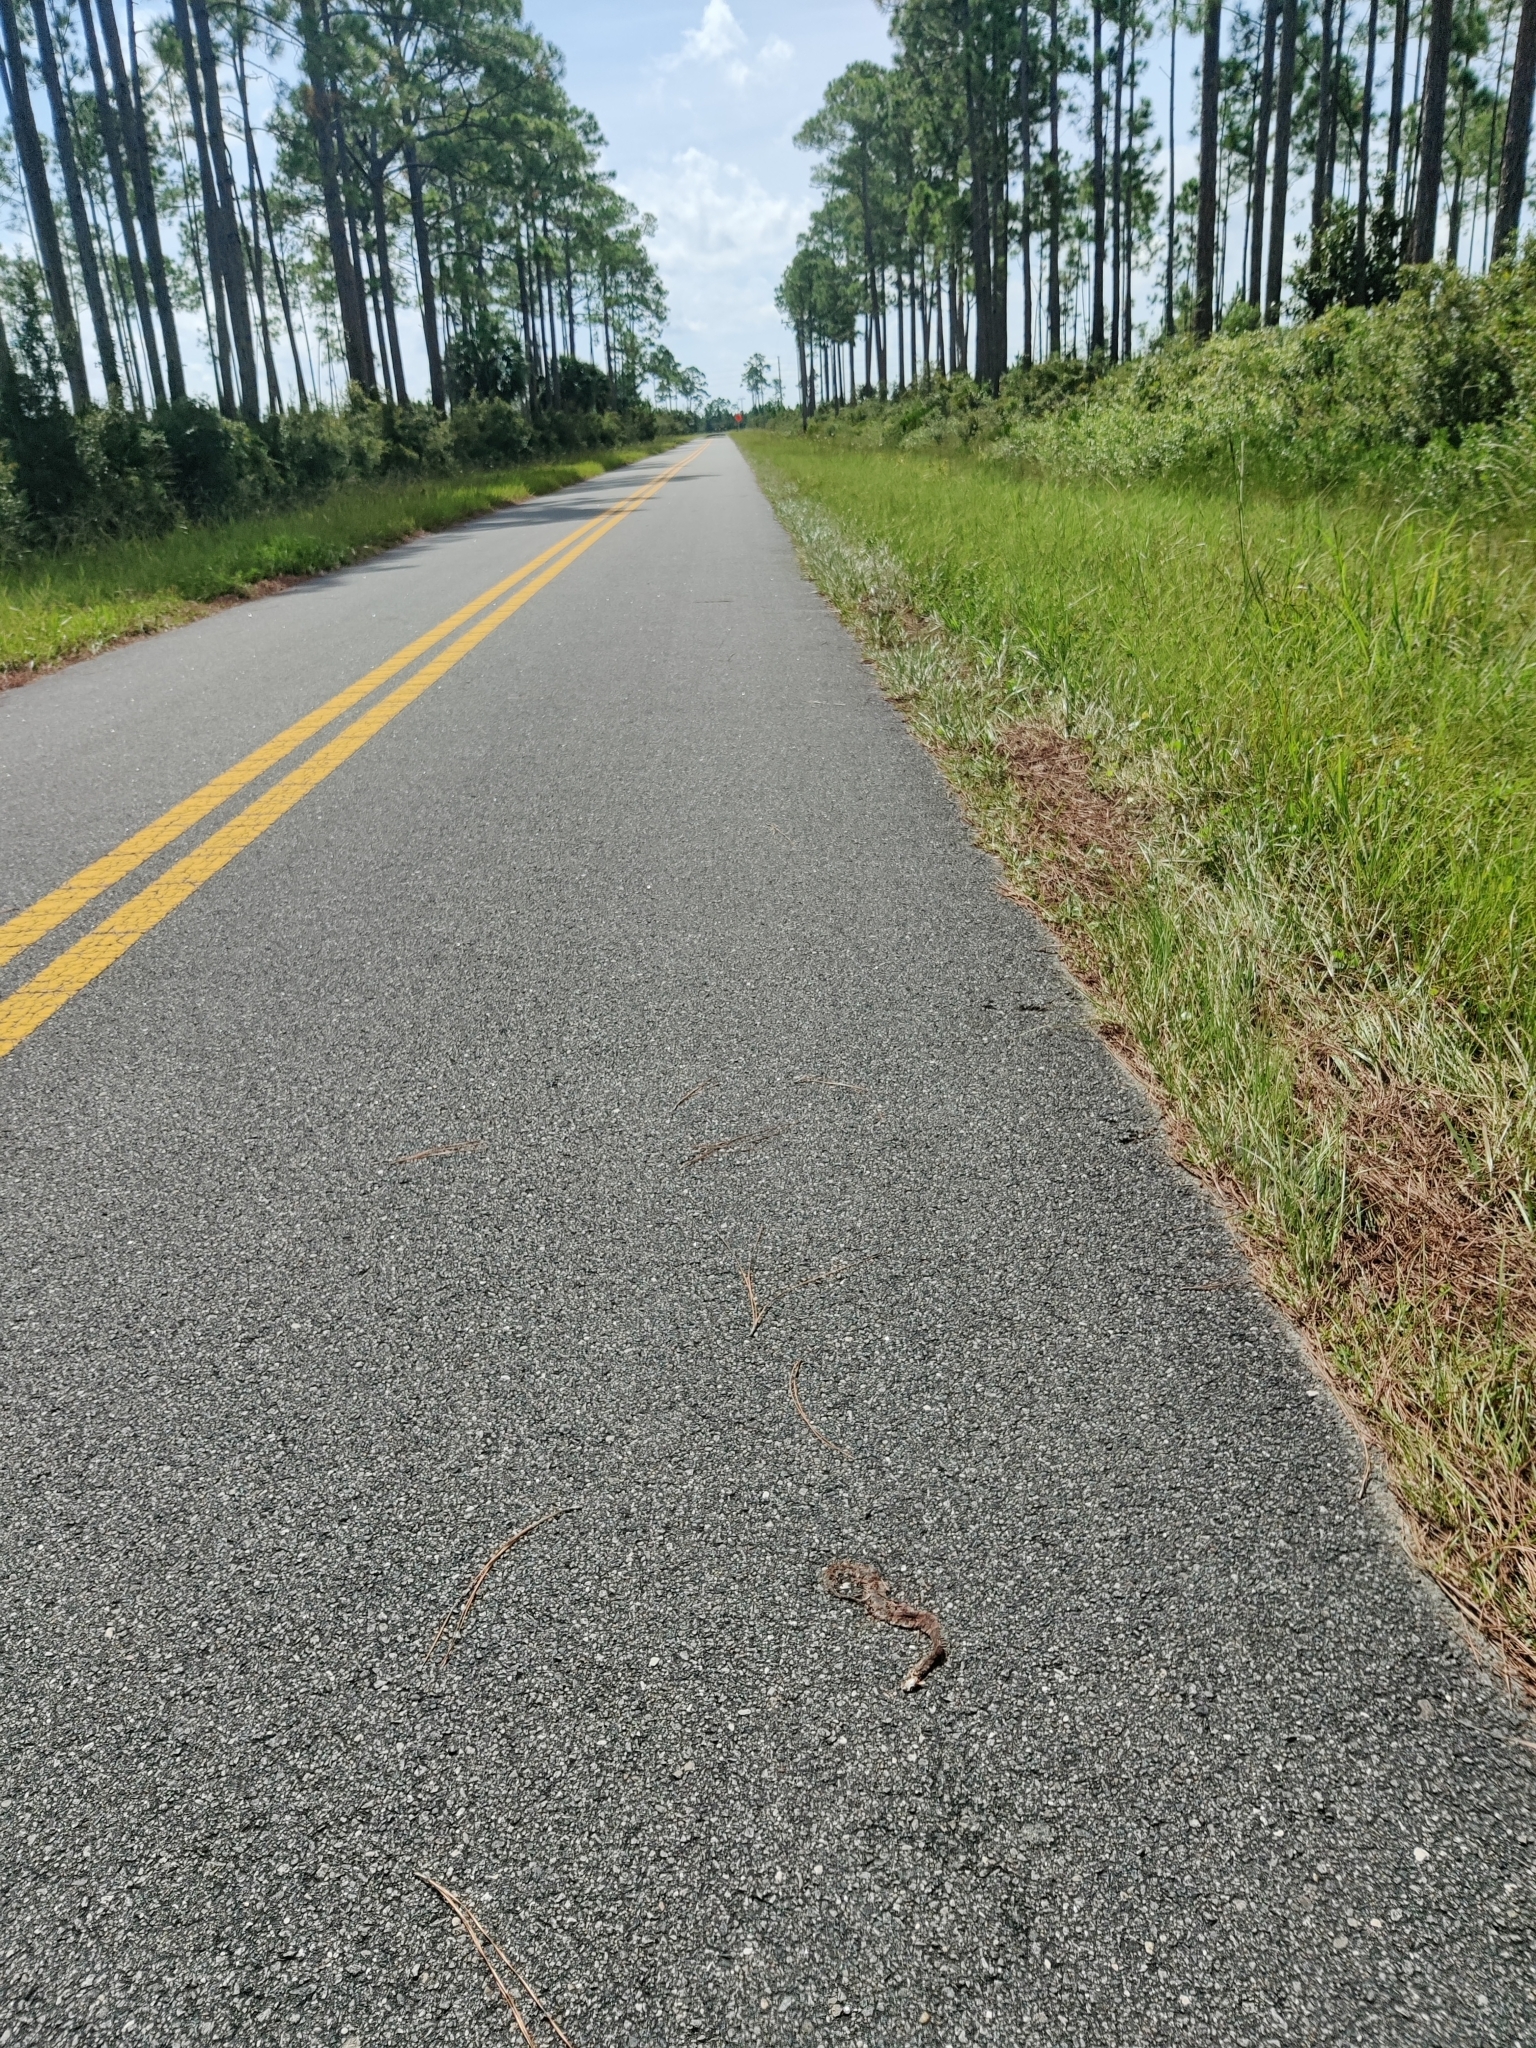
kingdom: Animalia
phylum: Chordata
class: Squamata
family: Viperidae
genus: Agkistrodon
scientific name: Agkistrodon conanti
